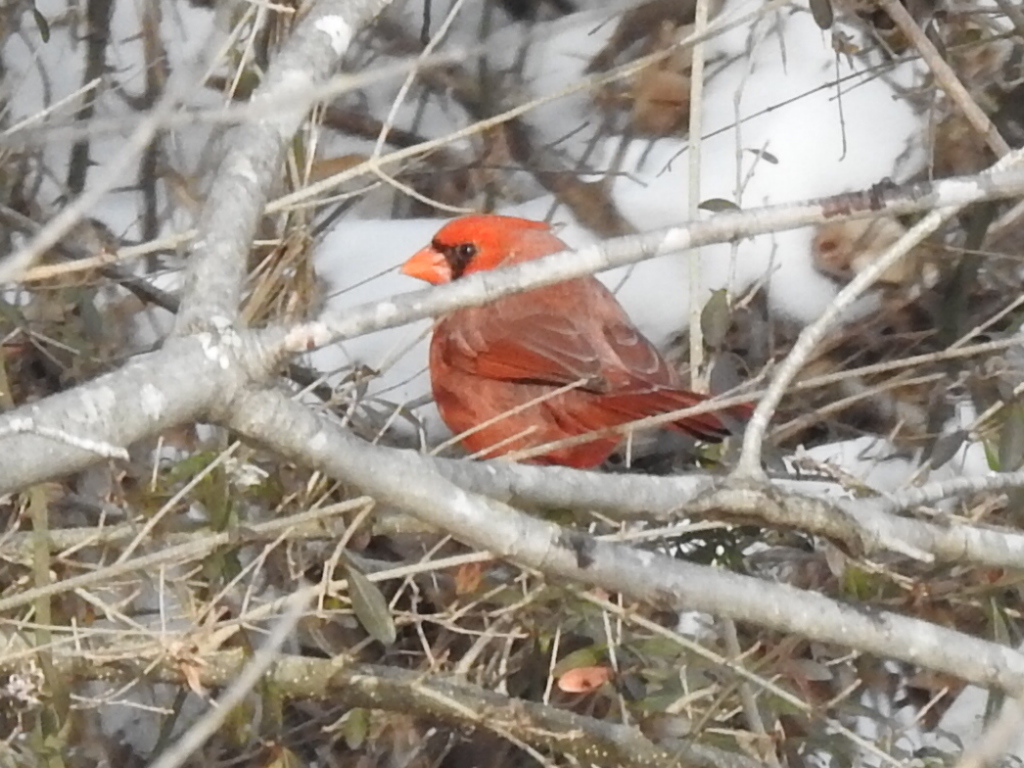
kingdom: Animalia
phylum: Chordata
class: Aves
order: Passeriformes
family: Cardinalidae
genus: Cardinalis
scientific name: Cardinalis cardinalis
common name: Northern cardinal
